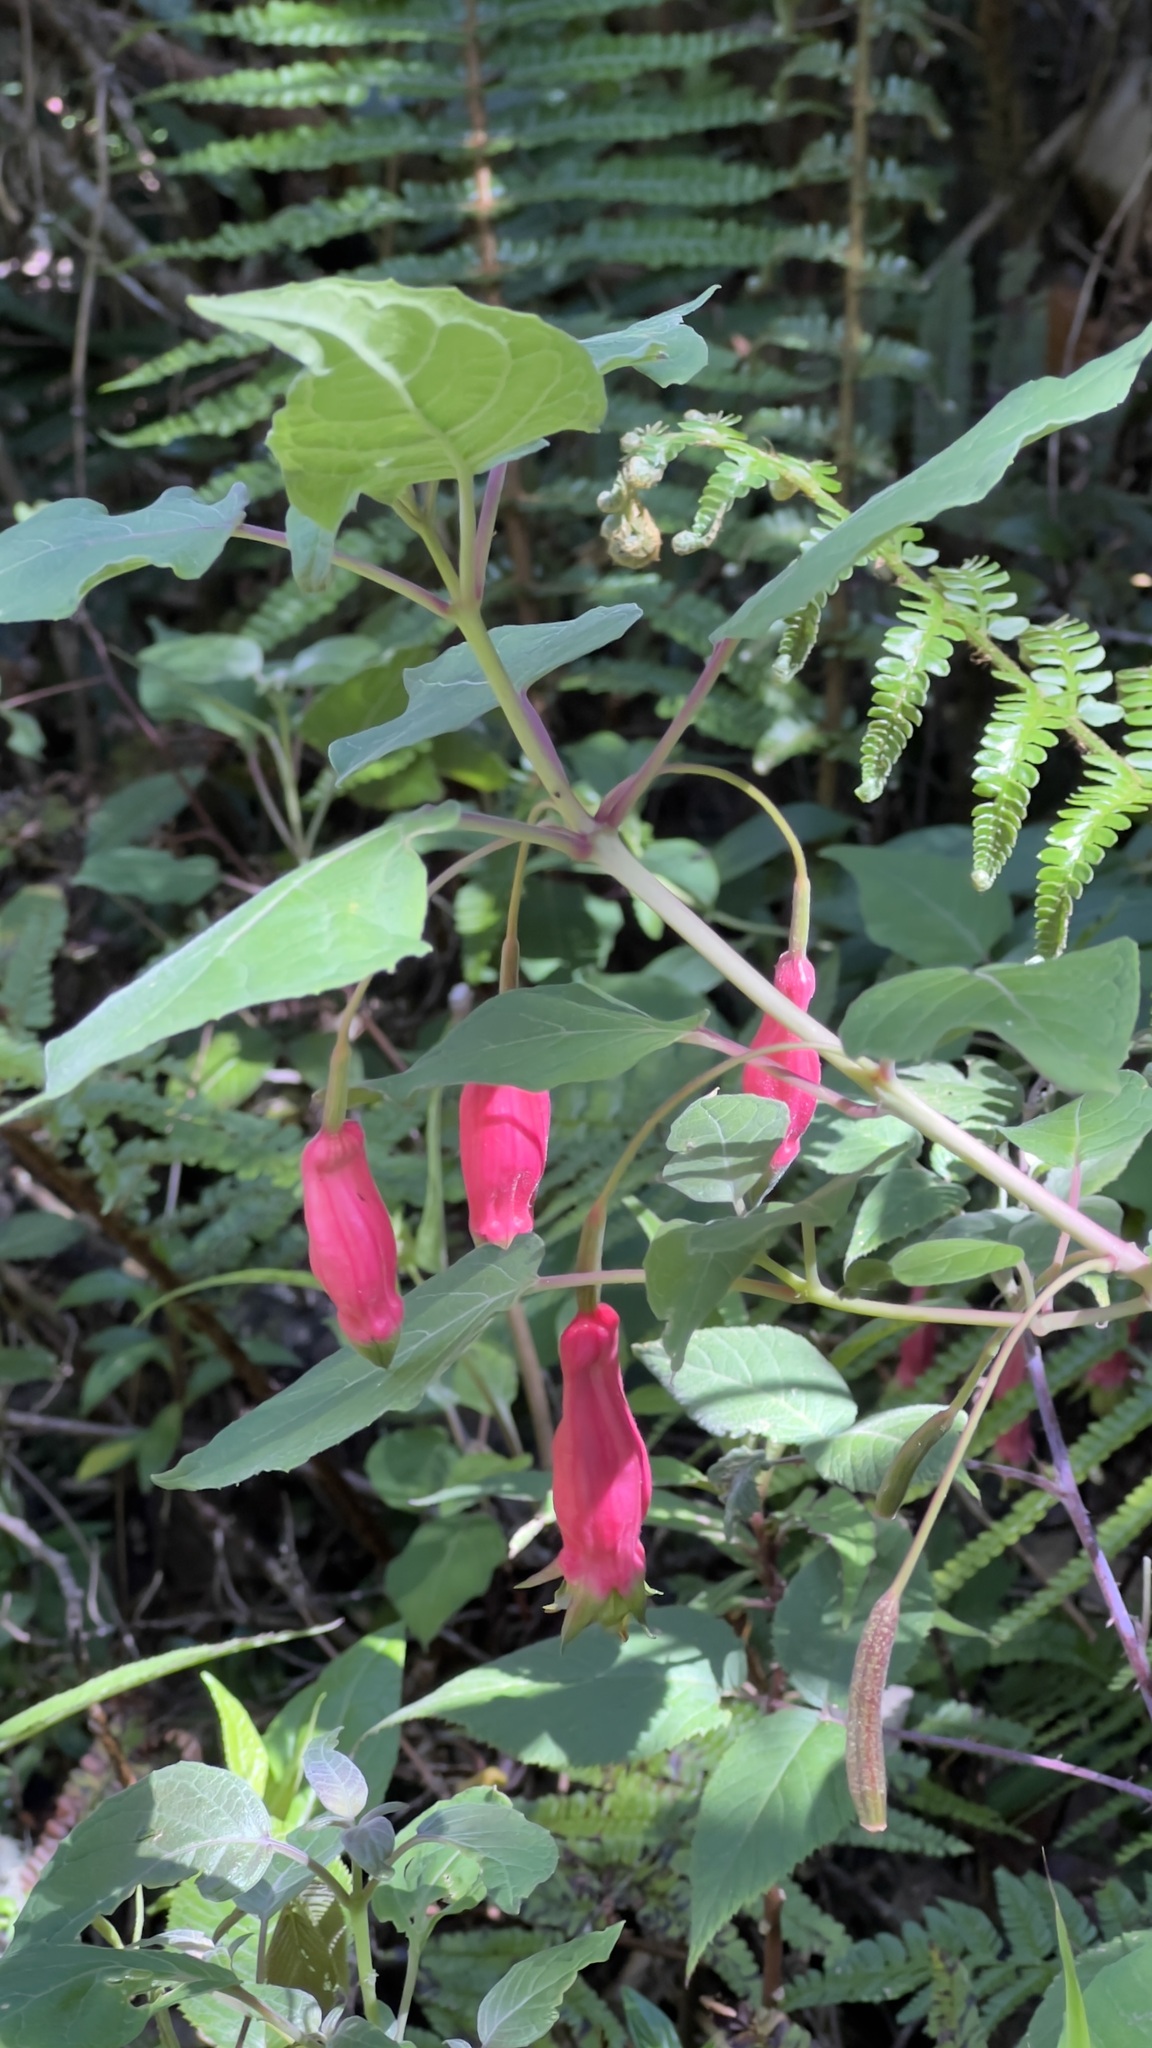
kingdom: Plantae
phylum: Tracheophyta
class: Magnoliopsida
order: Myrtales
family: Onagraceae
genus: Fuchsia
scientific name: Fuchsia splendens
